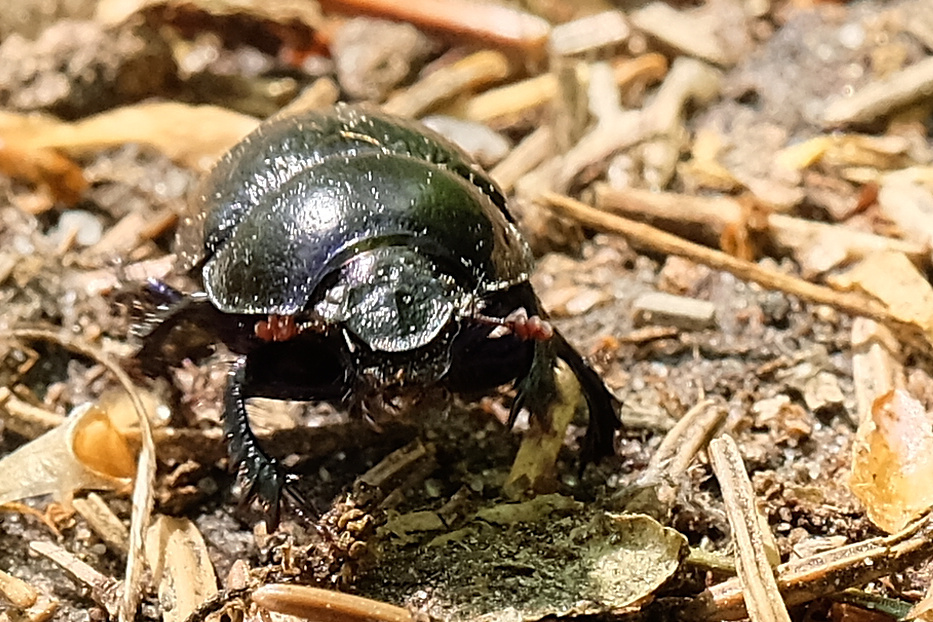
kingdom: Animalia
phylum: Arthropoda
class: Insecta
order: Coleoptera
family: Geotrupidae
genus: Anoplotrupes
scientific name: Anoplotrupes stercorosus
